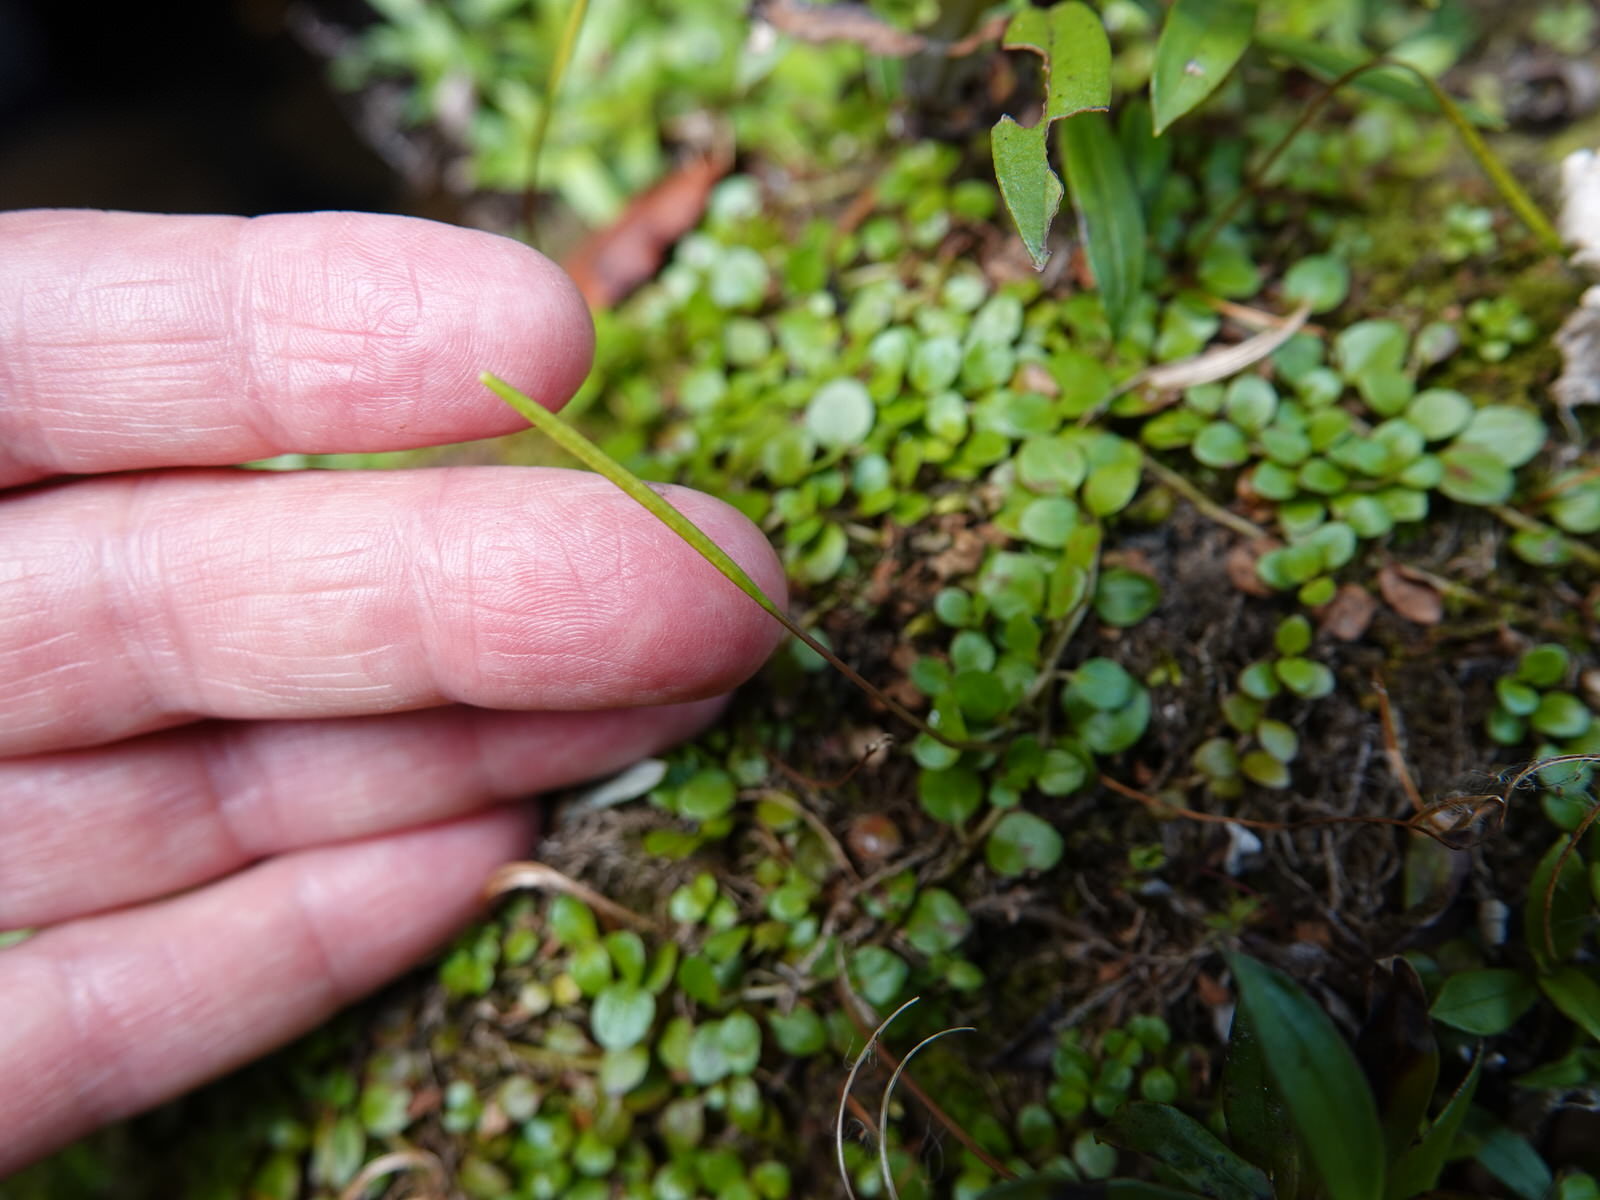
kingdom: Plantae
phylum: Tracheophyta
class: Magnoliopsida
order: Myrtales
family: Onagraceae
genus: Epilobium
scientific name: Epilobium brunnescens
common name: New zealand willowherb
